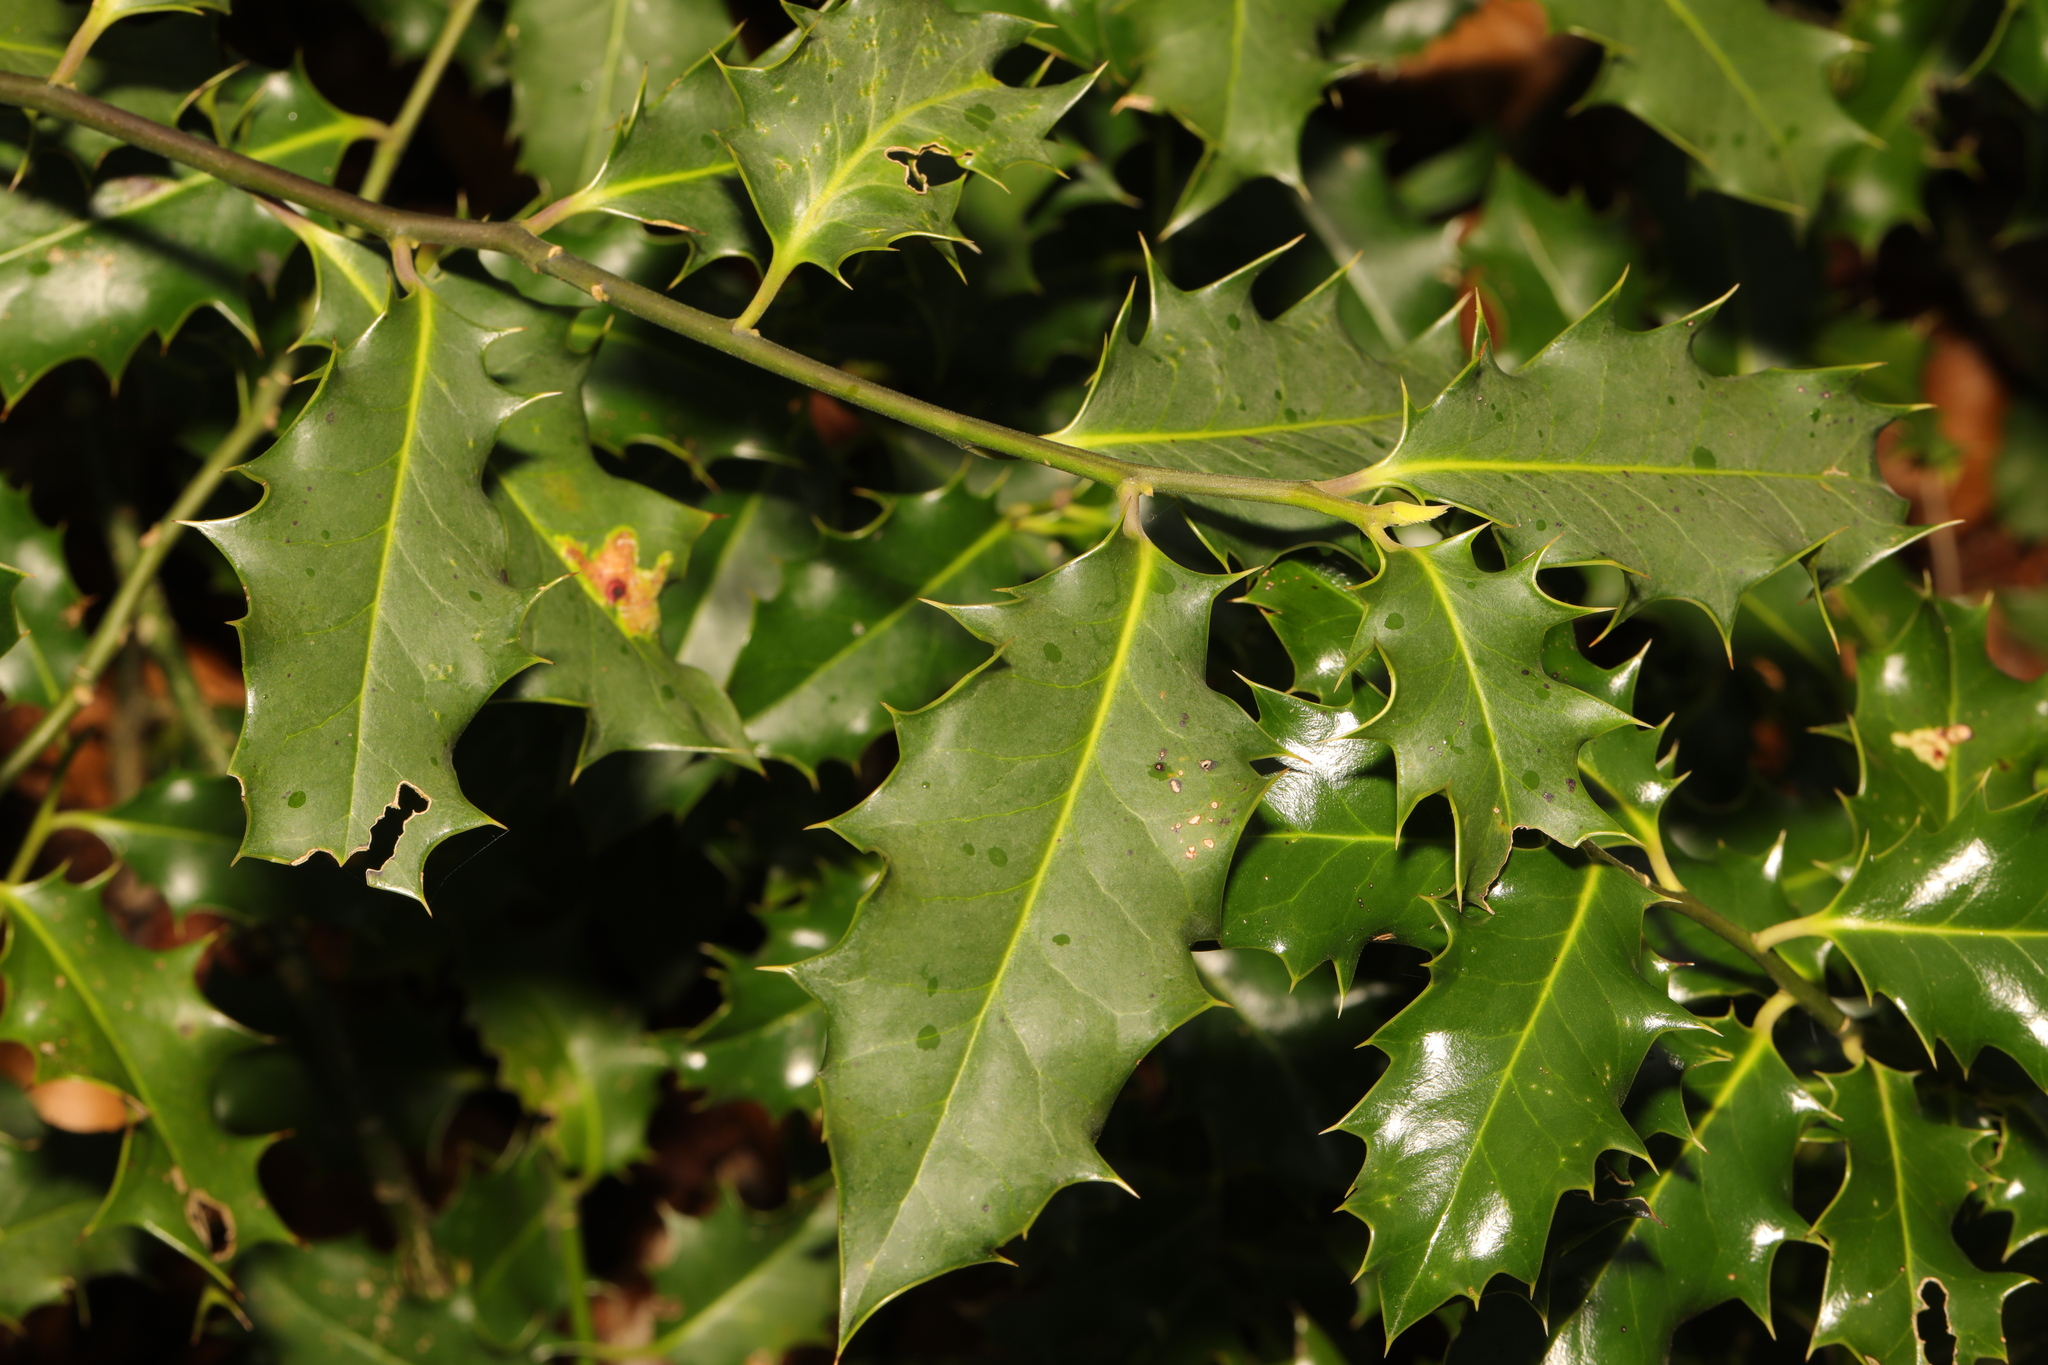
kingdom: Plantae
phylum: Tracheophyta
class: Magnoliopsida
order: Aquifoliales
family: Aquifoliaceae
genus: Ilex
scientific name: Ilex aquifolium
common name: English holly
